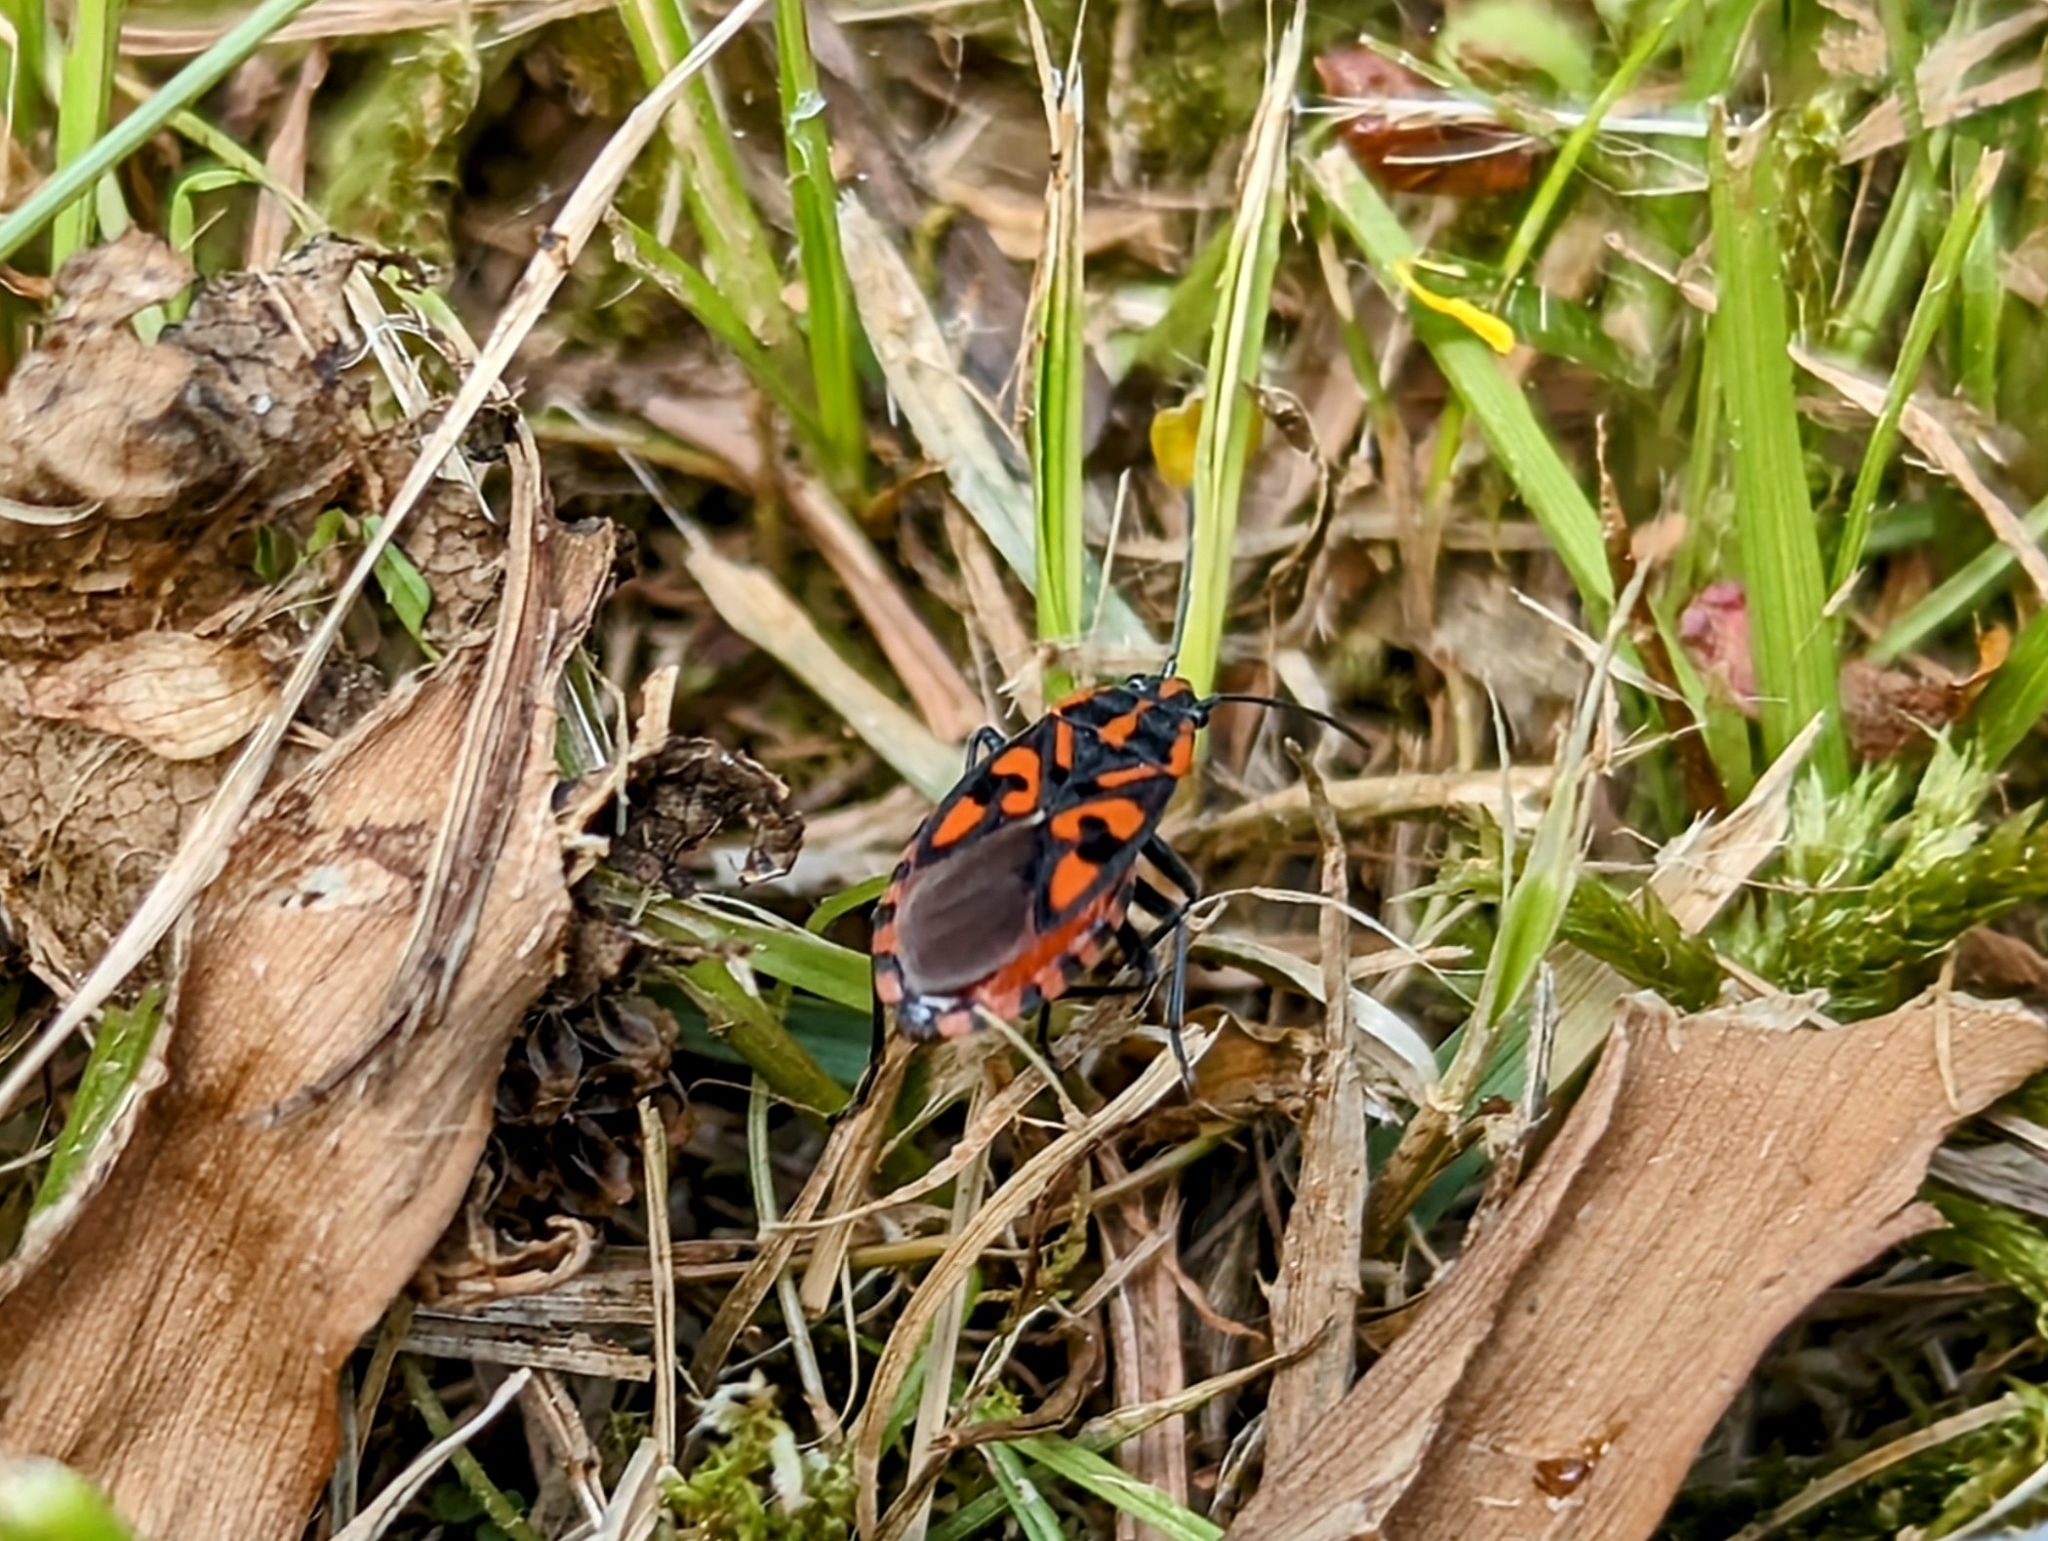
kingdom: Animalia
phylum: Arthropoda
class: Insecta
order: Hemiptera
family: Lygaeidae
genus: Spilostethus
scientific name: Spilostethus saxatilis
